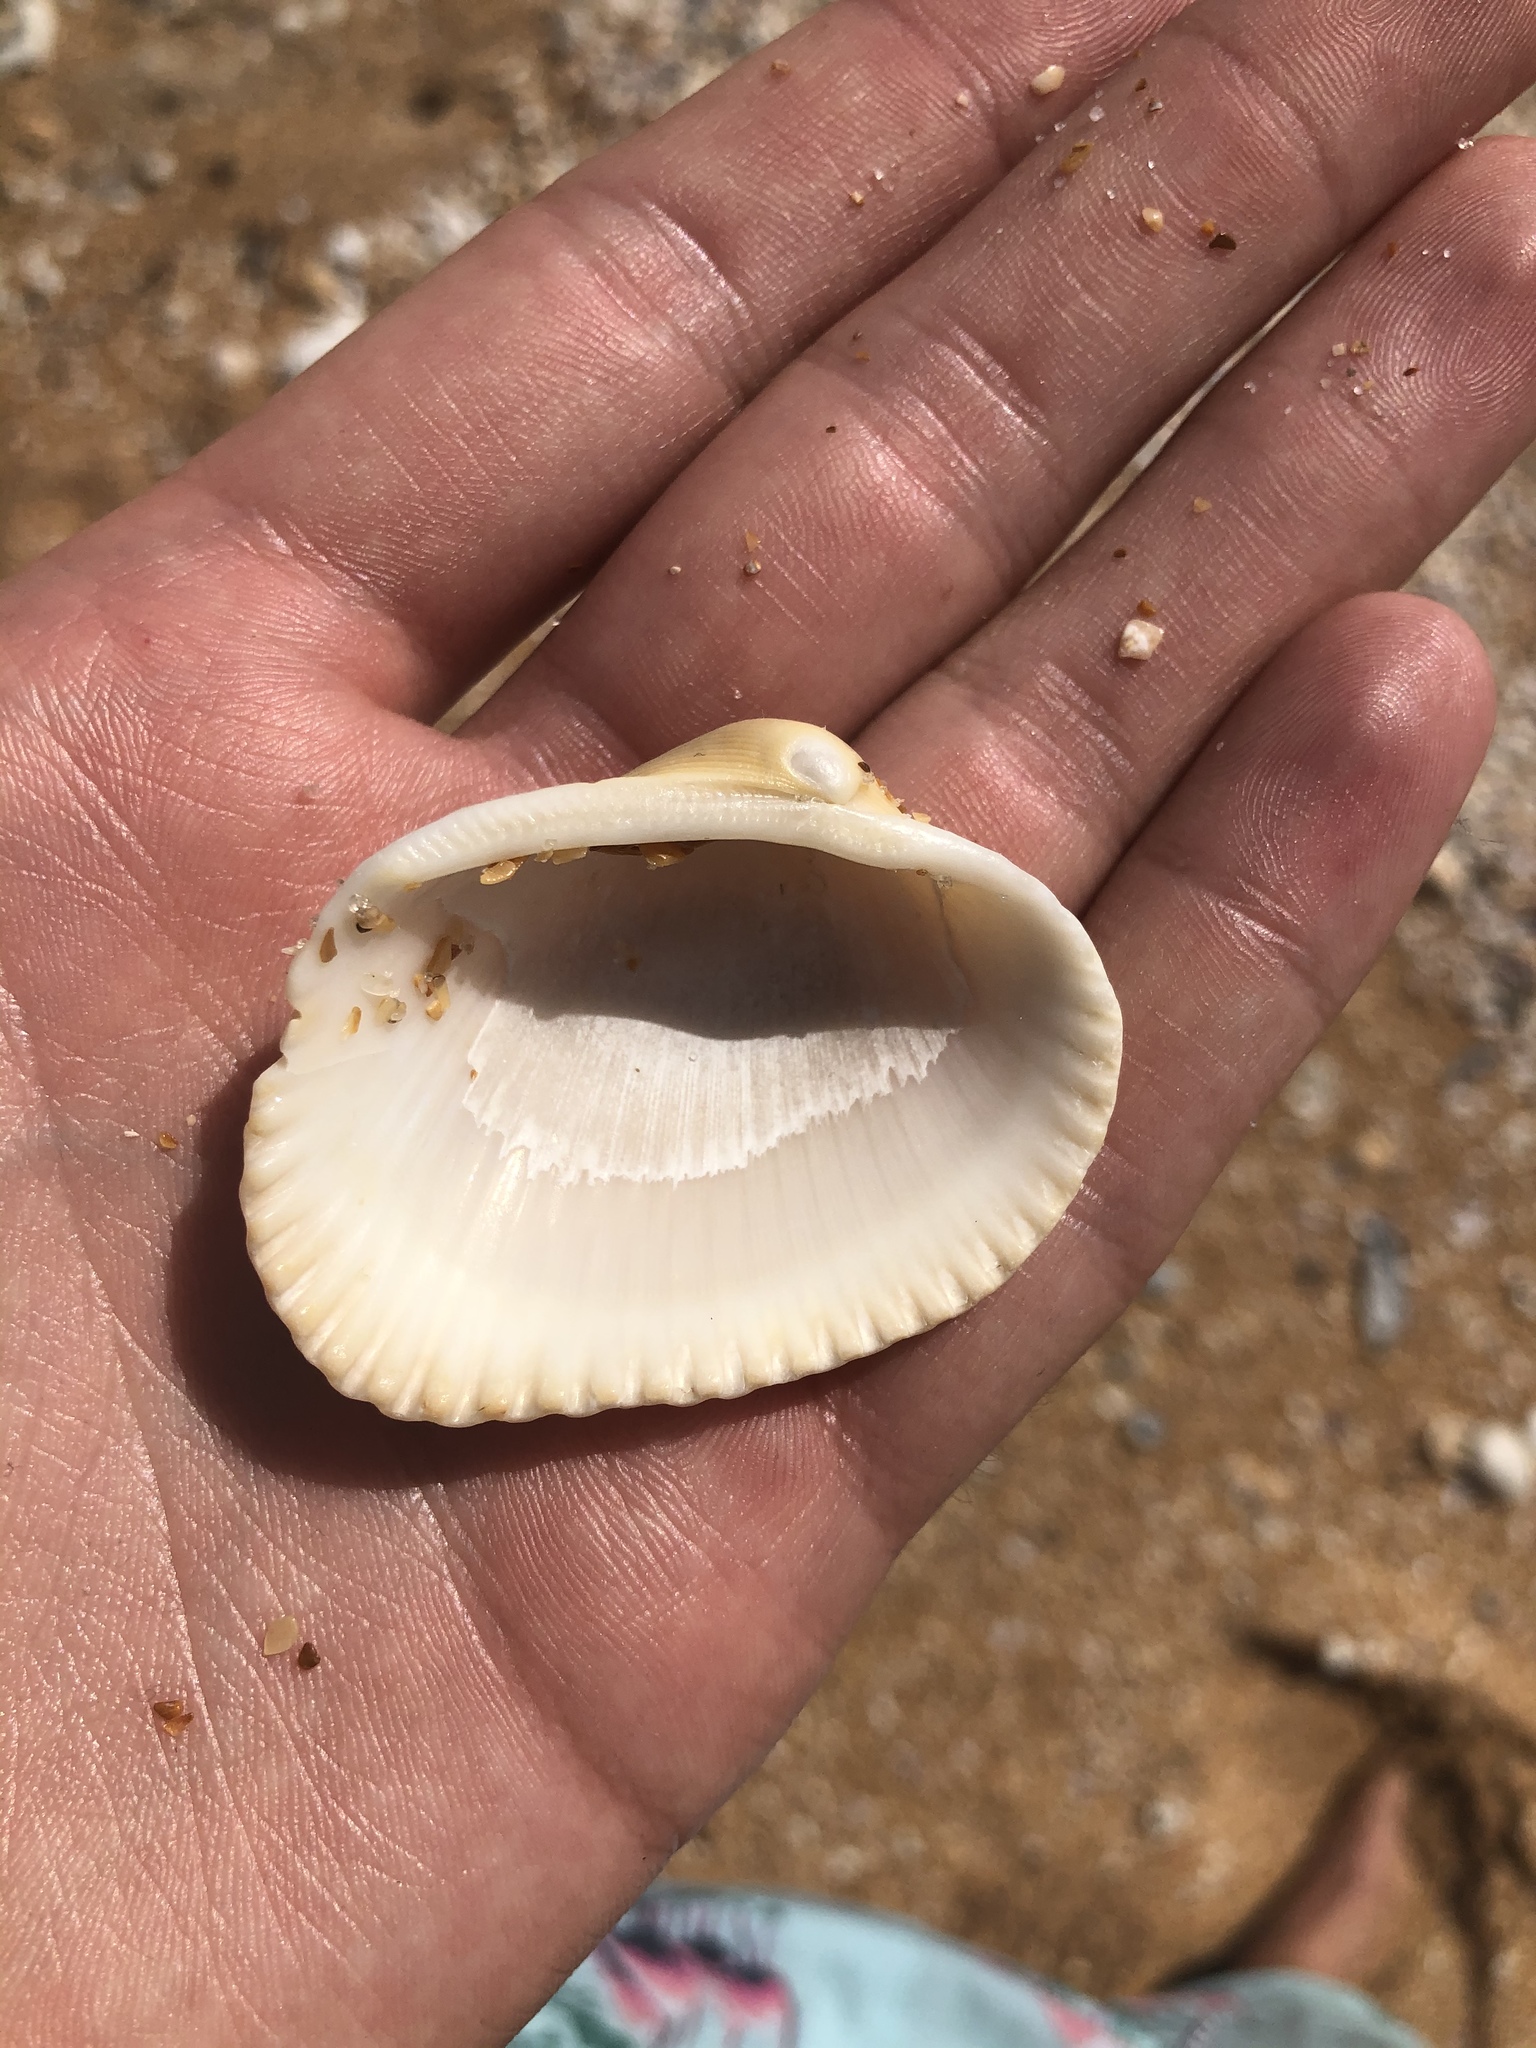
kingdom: Animalia
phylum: Mollusca
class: Bivalvia
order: Arcida
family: Arcidae
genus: Lunarca
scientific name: Lunarca ovalis
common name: Blood ark
